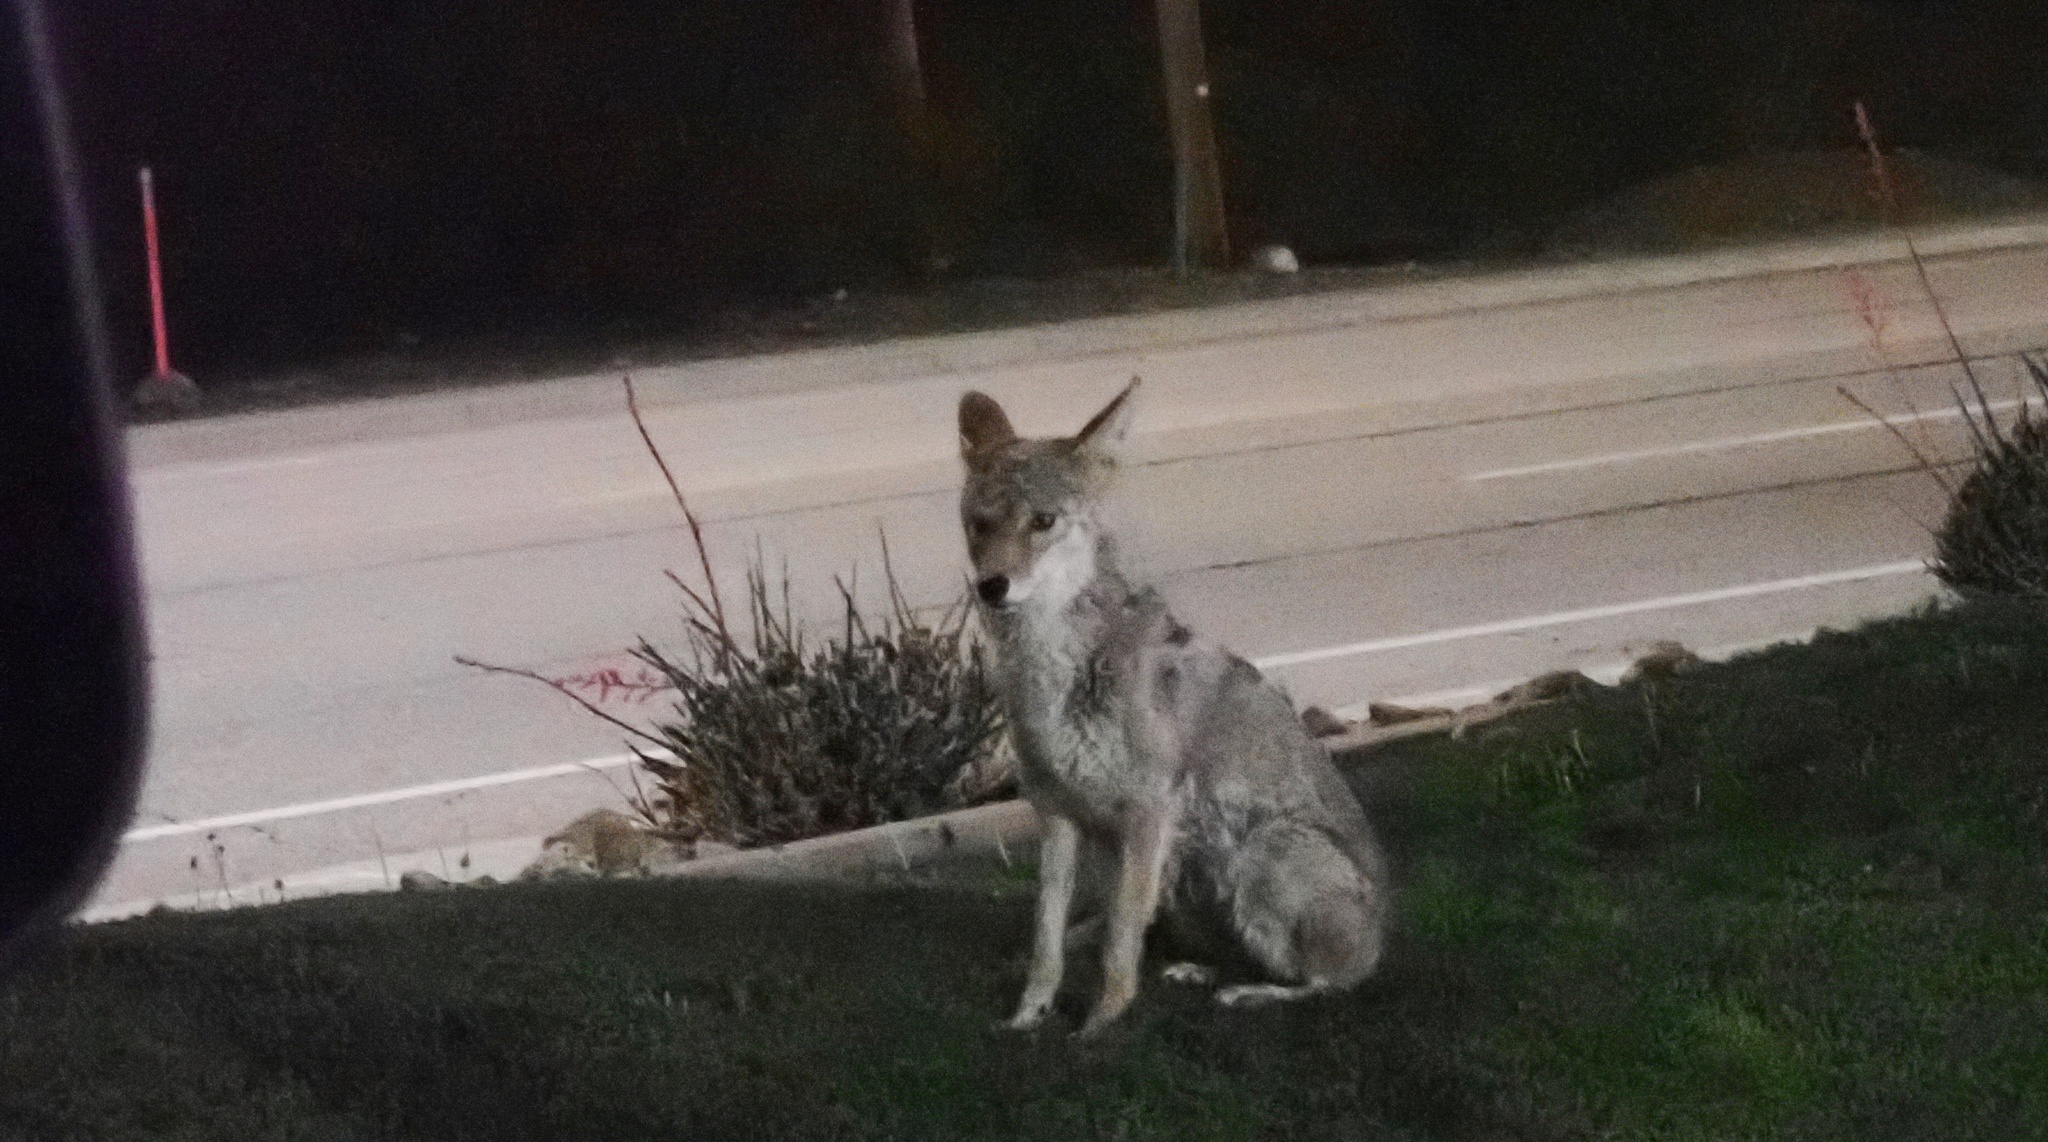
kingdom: Animalia
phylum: Chordata
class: Mammalia
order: Carnivora
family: Canidae
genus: Canis
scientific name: Canis latrans
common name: Coyote
